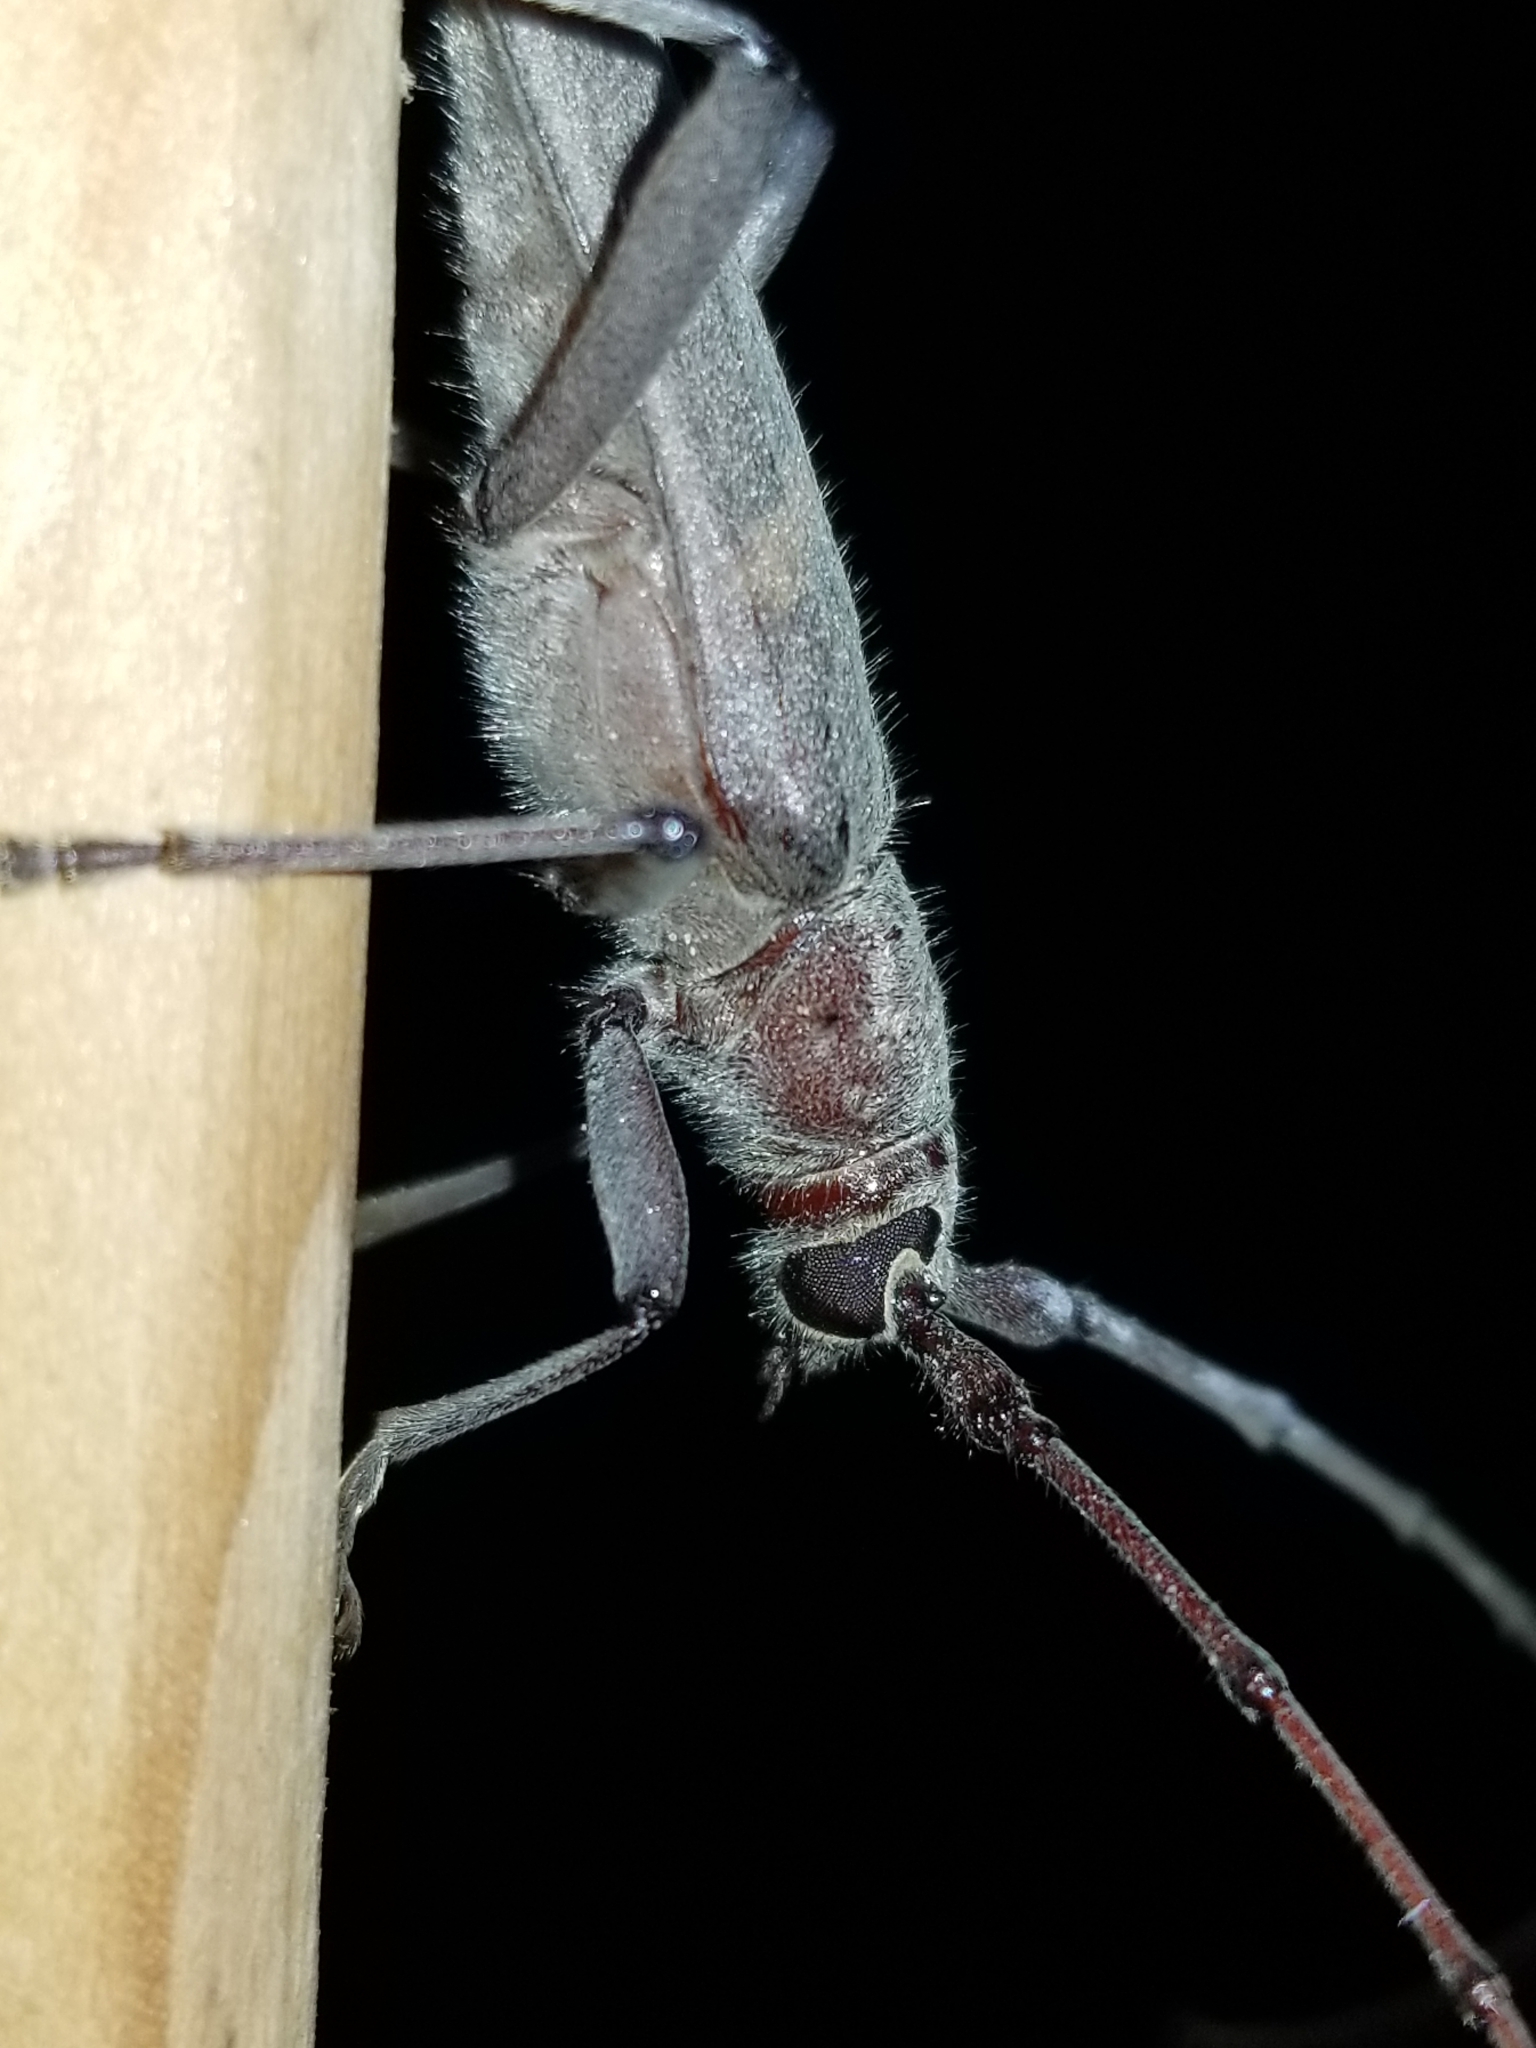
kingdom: Animalia
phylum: Arthropoda
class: Insecta
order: Coleoptera
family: Cerambycidae
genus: Knulliana
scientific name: Knulliana cincta
